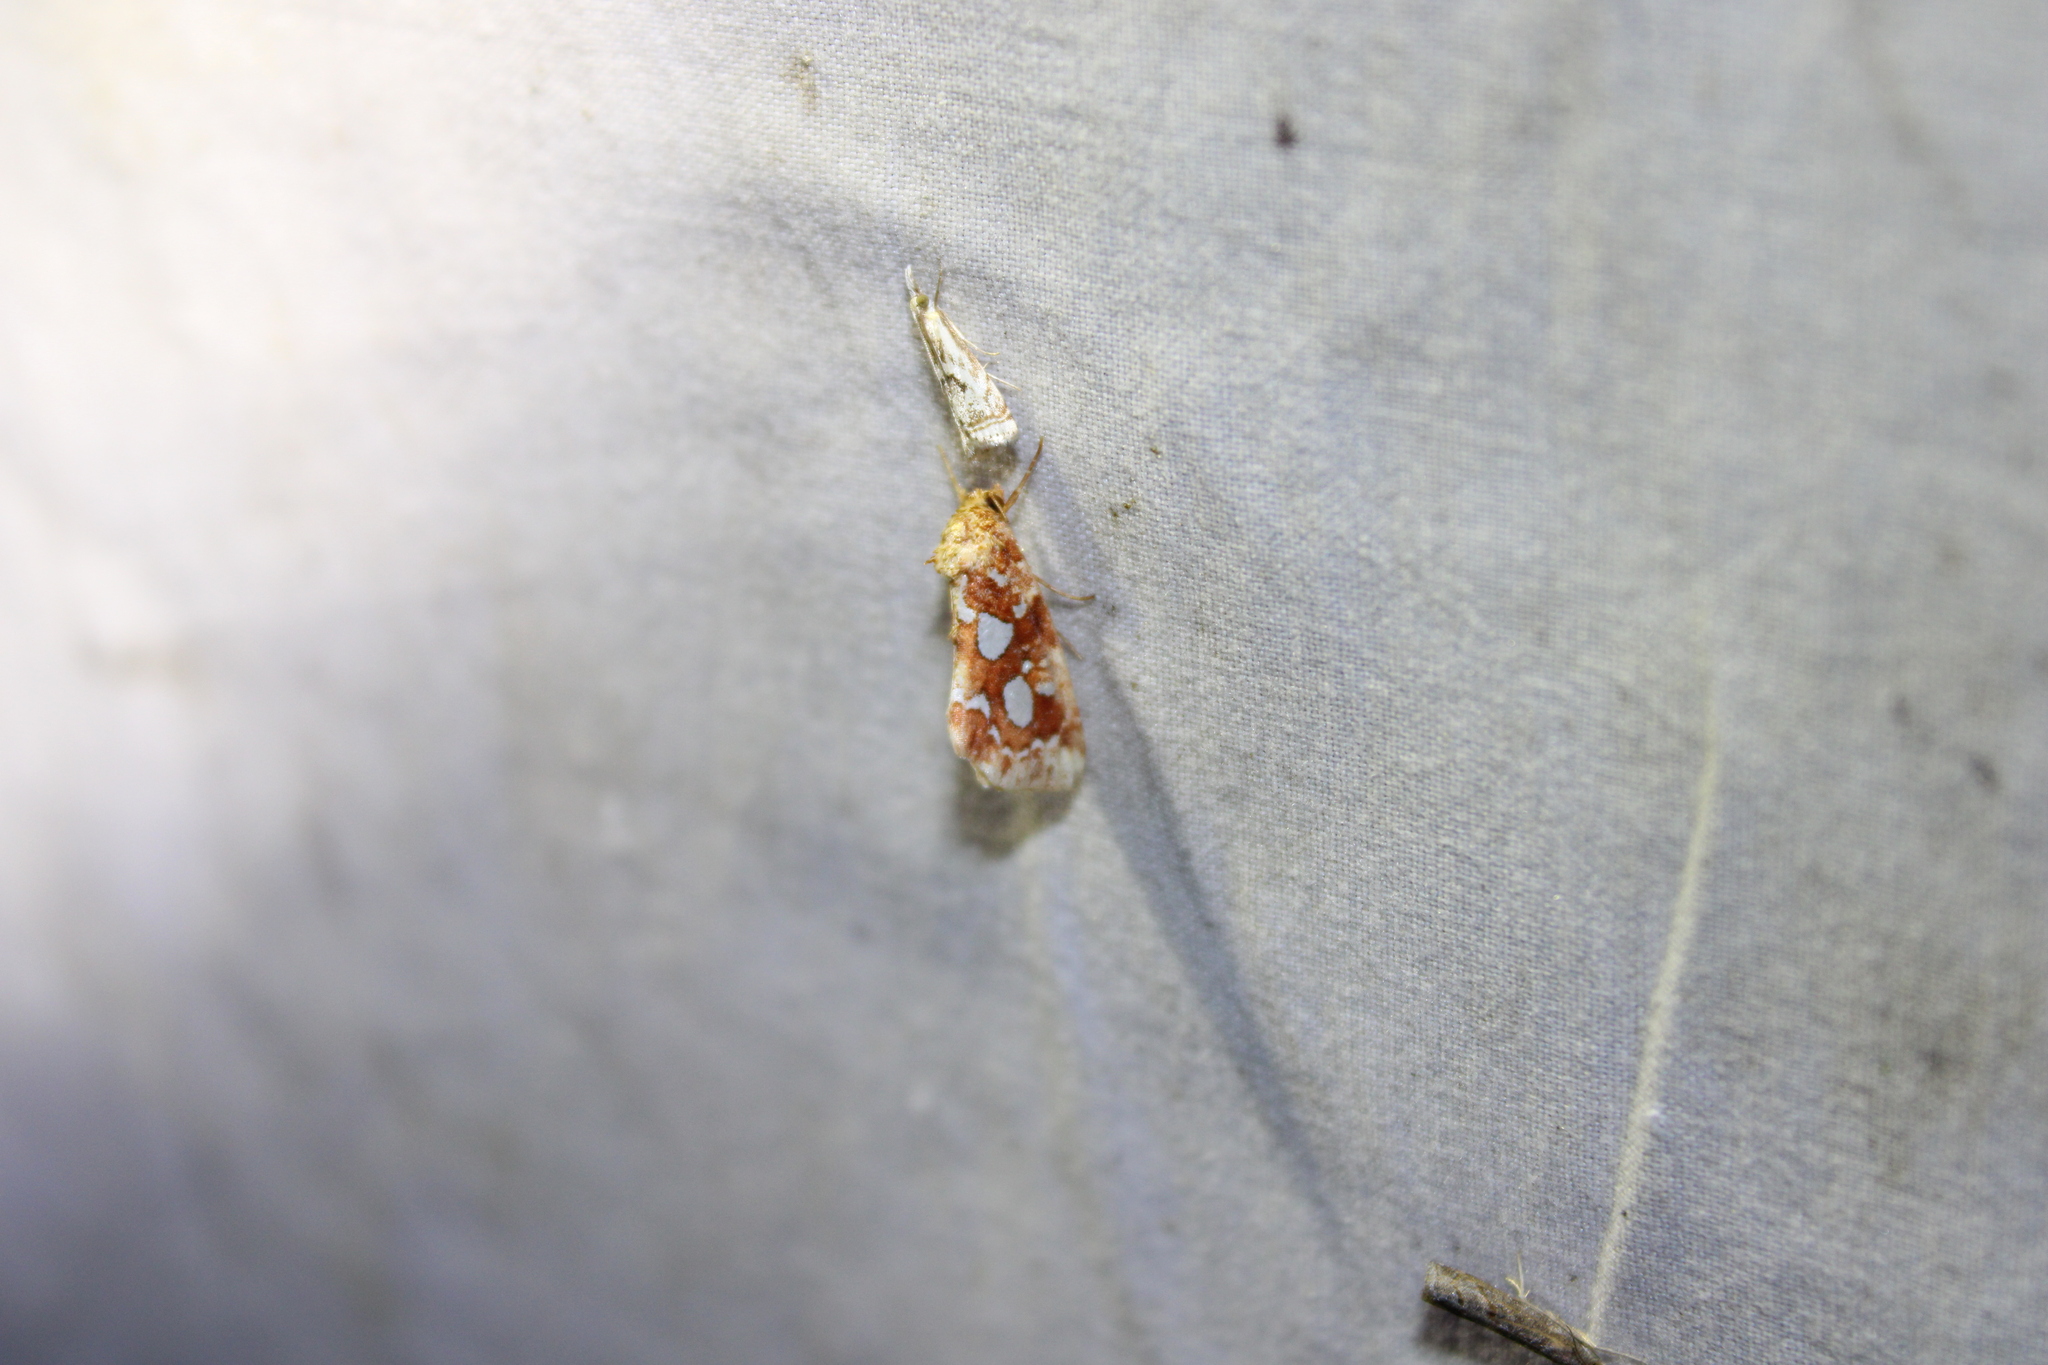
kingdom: Animalia
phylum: Arthropoda
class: Insecta
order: Lepidoptera
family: Noctuidae
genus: Callopistria
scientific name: Callopistria cordata
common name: Silver-spotted fern moth
